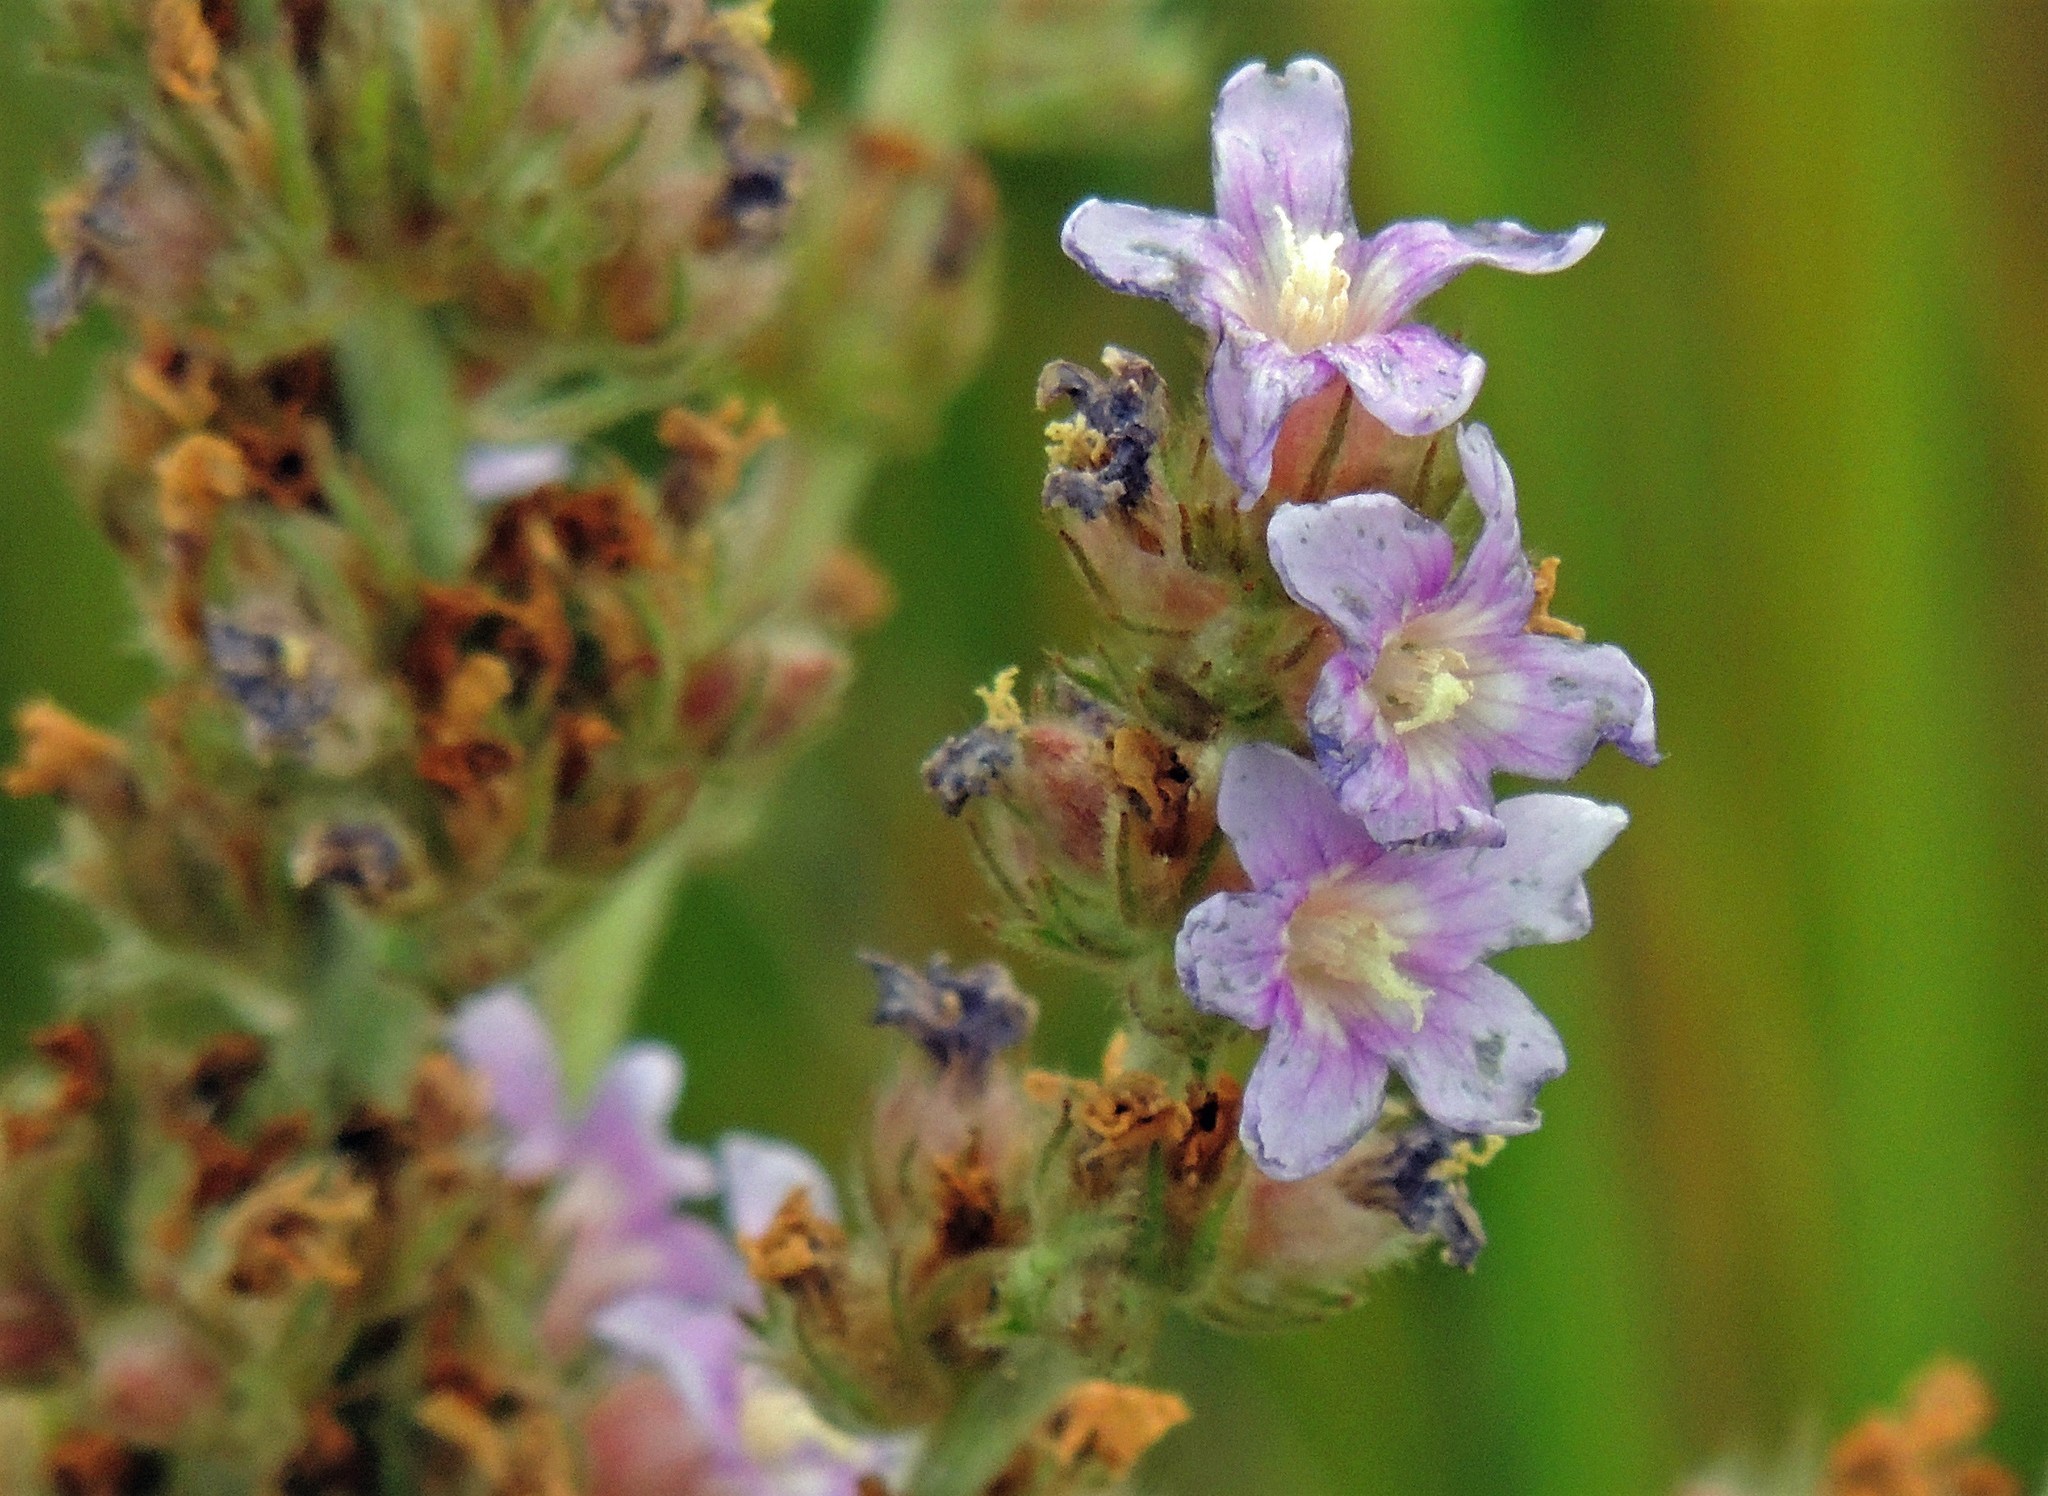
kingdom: Plantae
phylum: Tracheophyta
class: Magnoliopsida
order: Malvales
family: Malvaceae
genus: Melochia
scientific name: Melochia spicata
